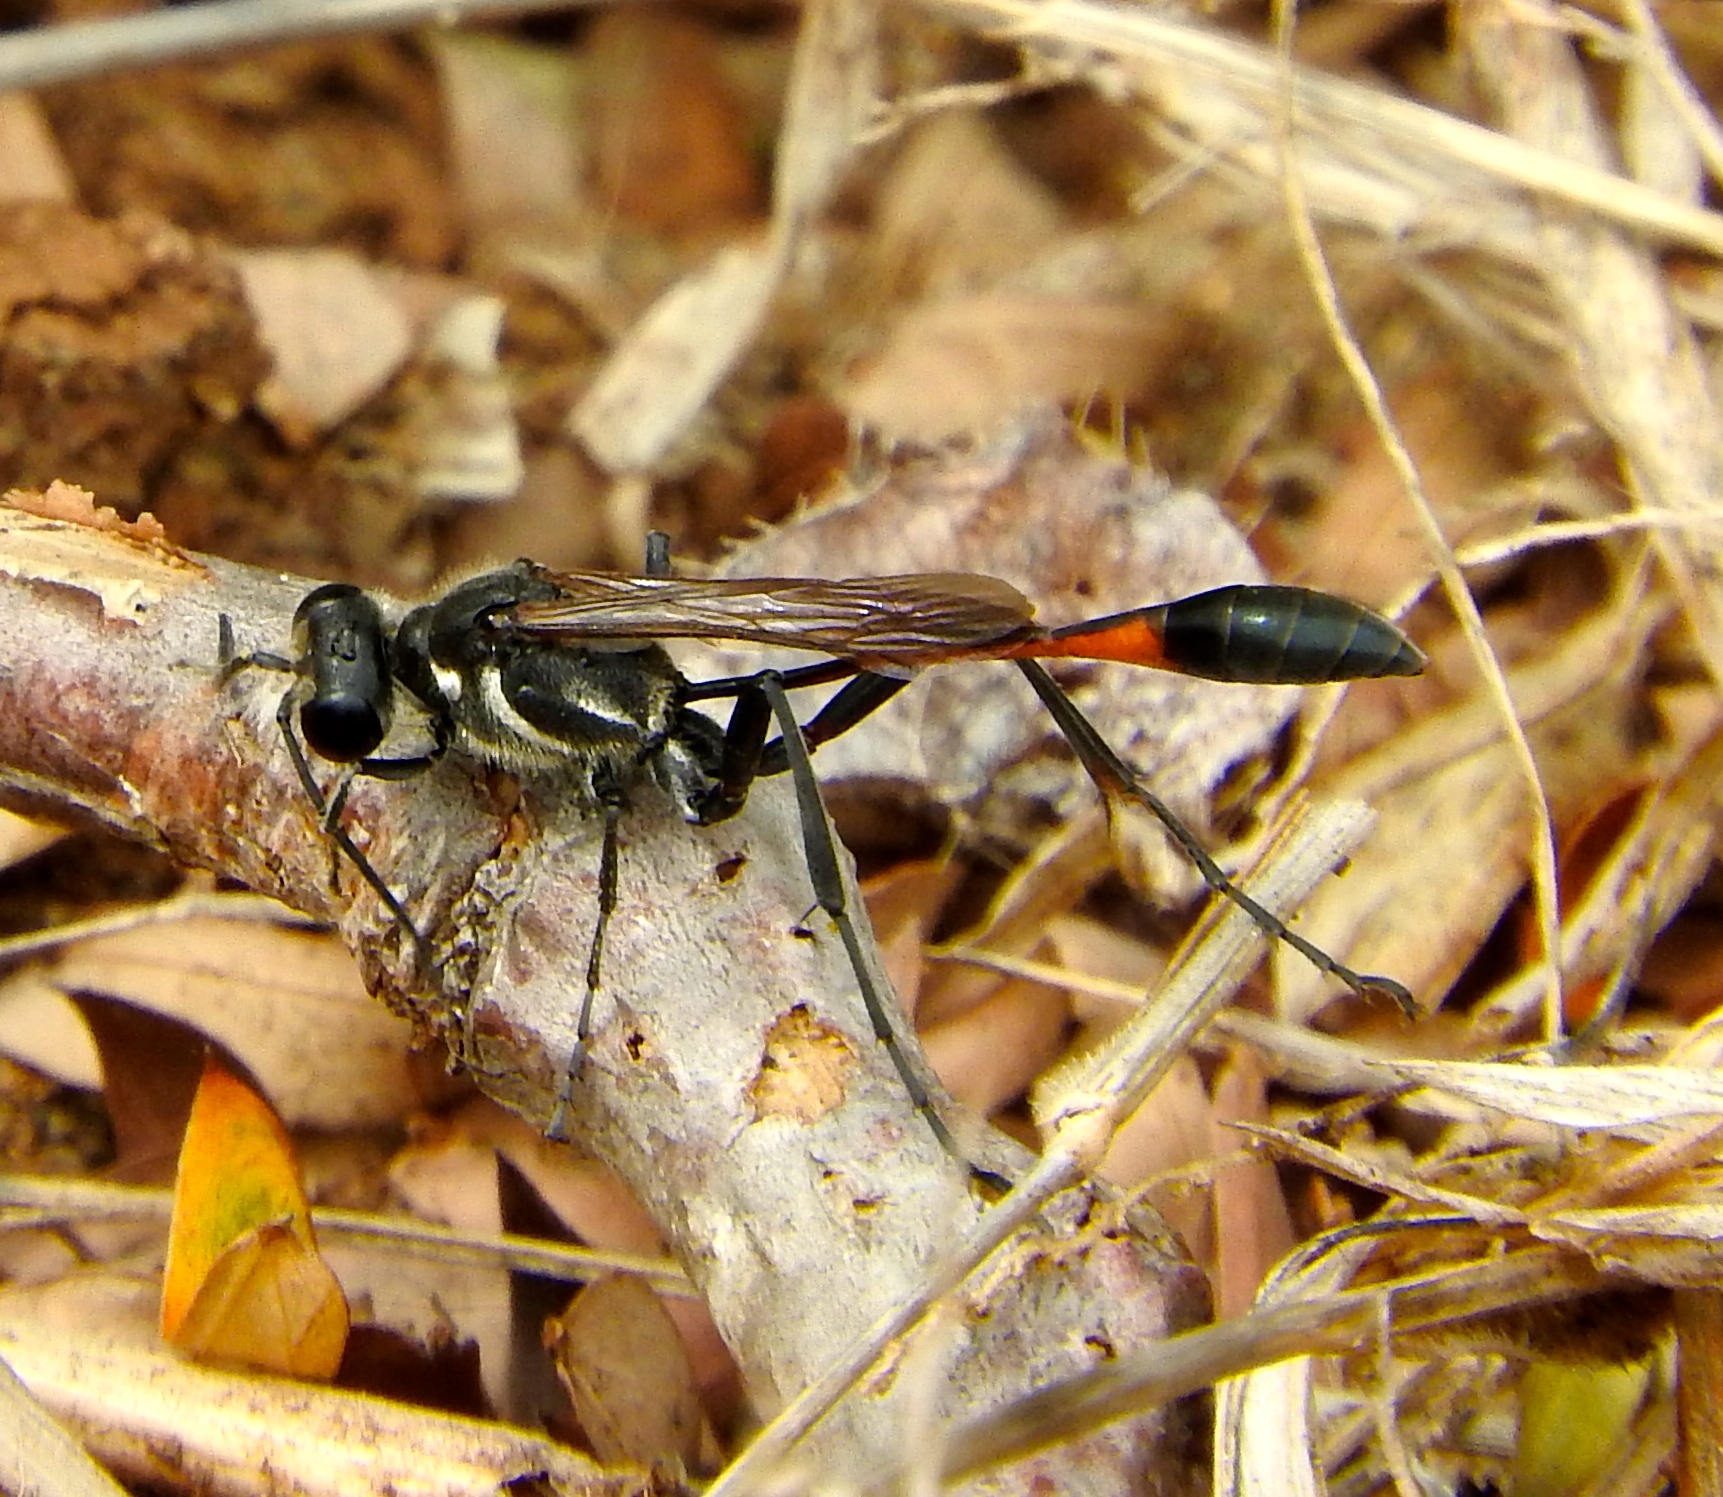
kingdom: Animalia
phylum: Arthropoda
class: Insecta
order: Hymenoptera
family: Sphecidae
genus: Ammophila
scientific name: Ammophila
